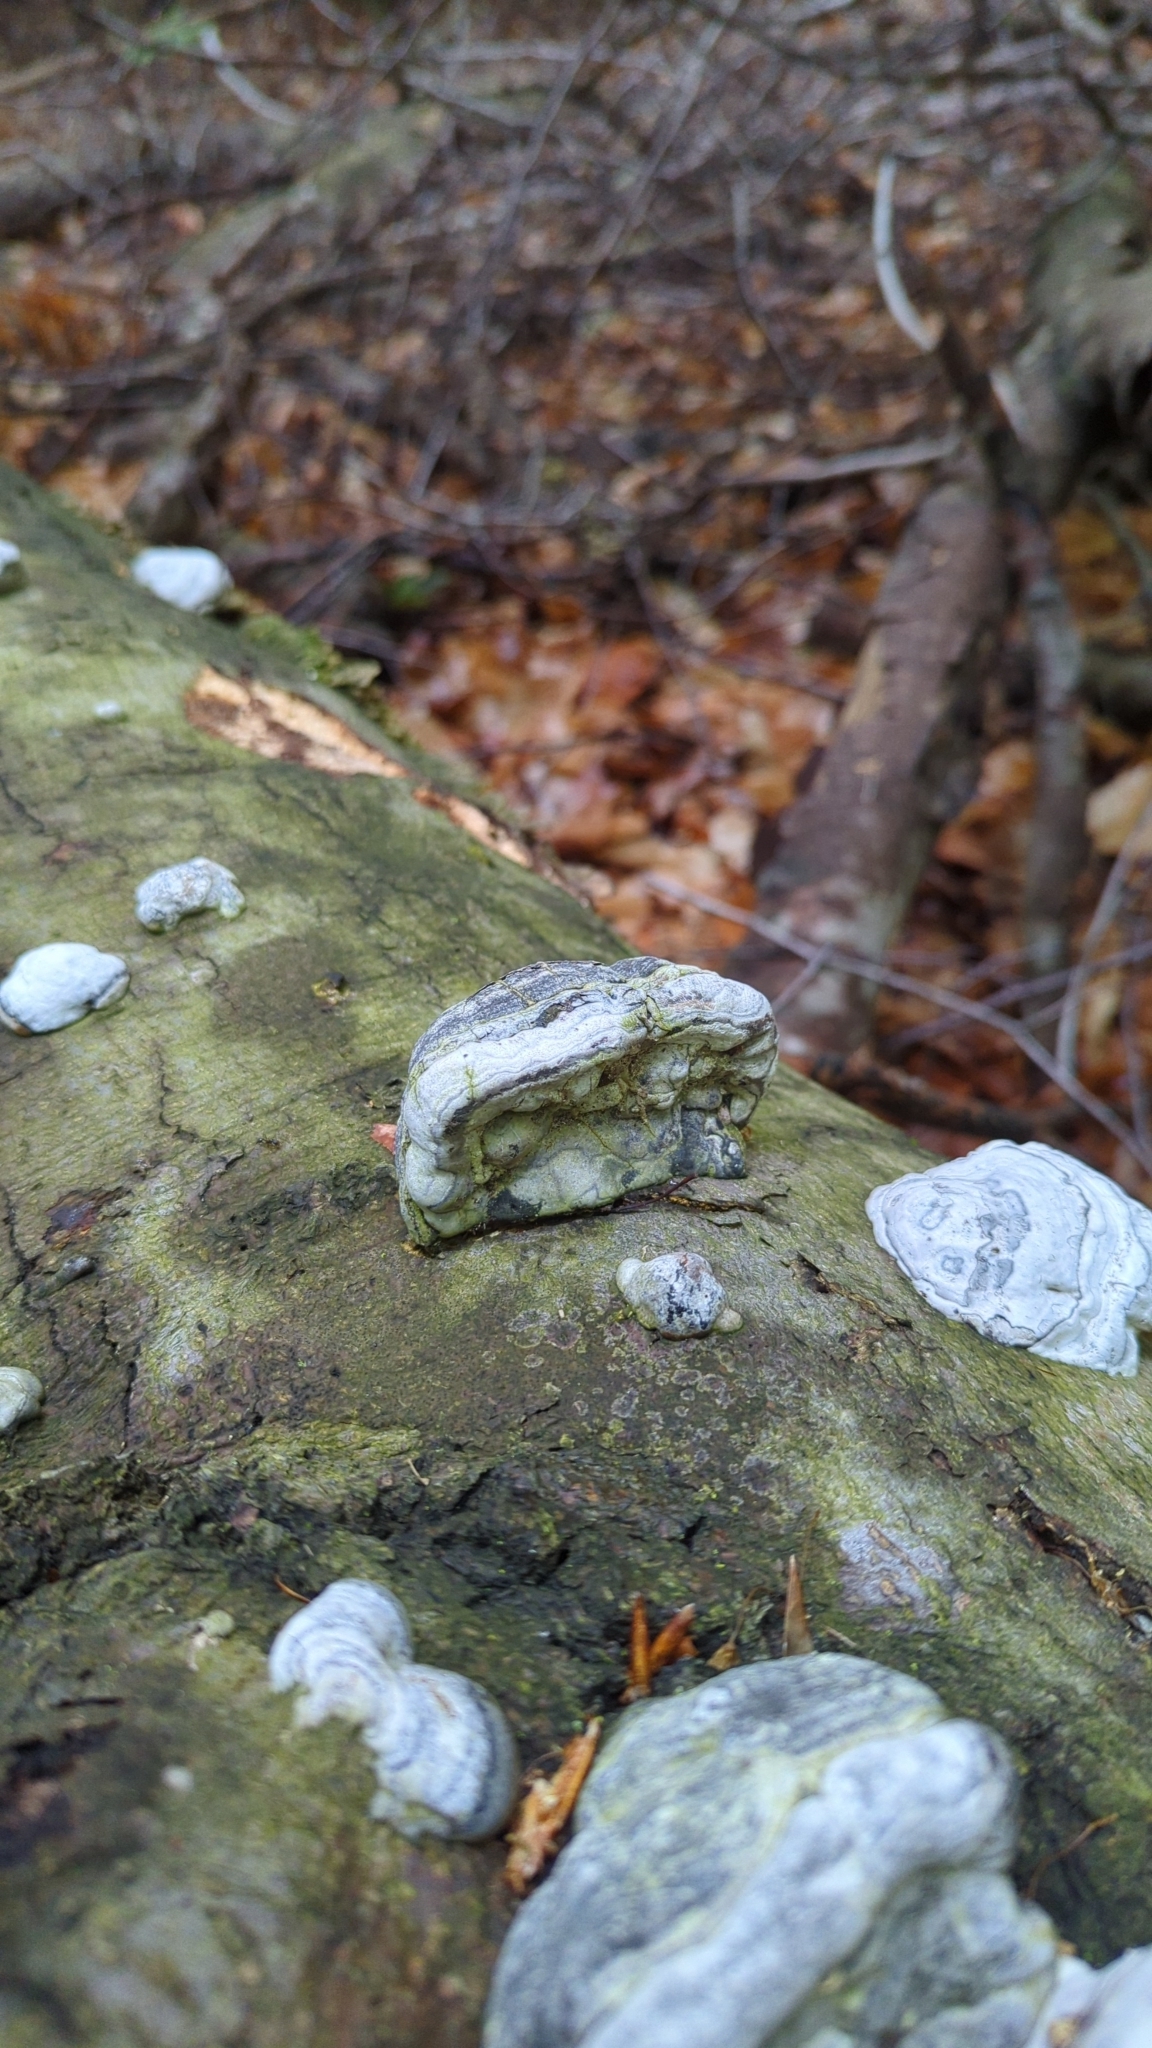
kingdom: Fungi
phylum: Basidiomycota
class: Agaricomycetes
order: Polyporales
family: Polyporaceae
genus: Fomes
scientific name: Fomes fomentarius
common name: Hoof fungus
